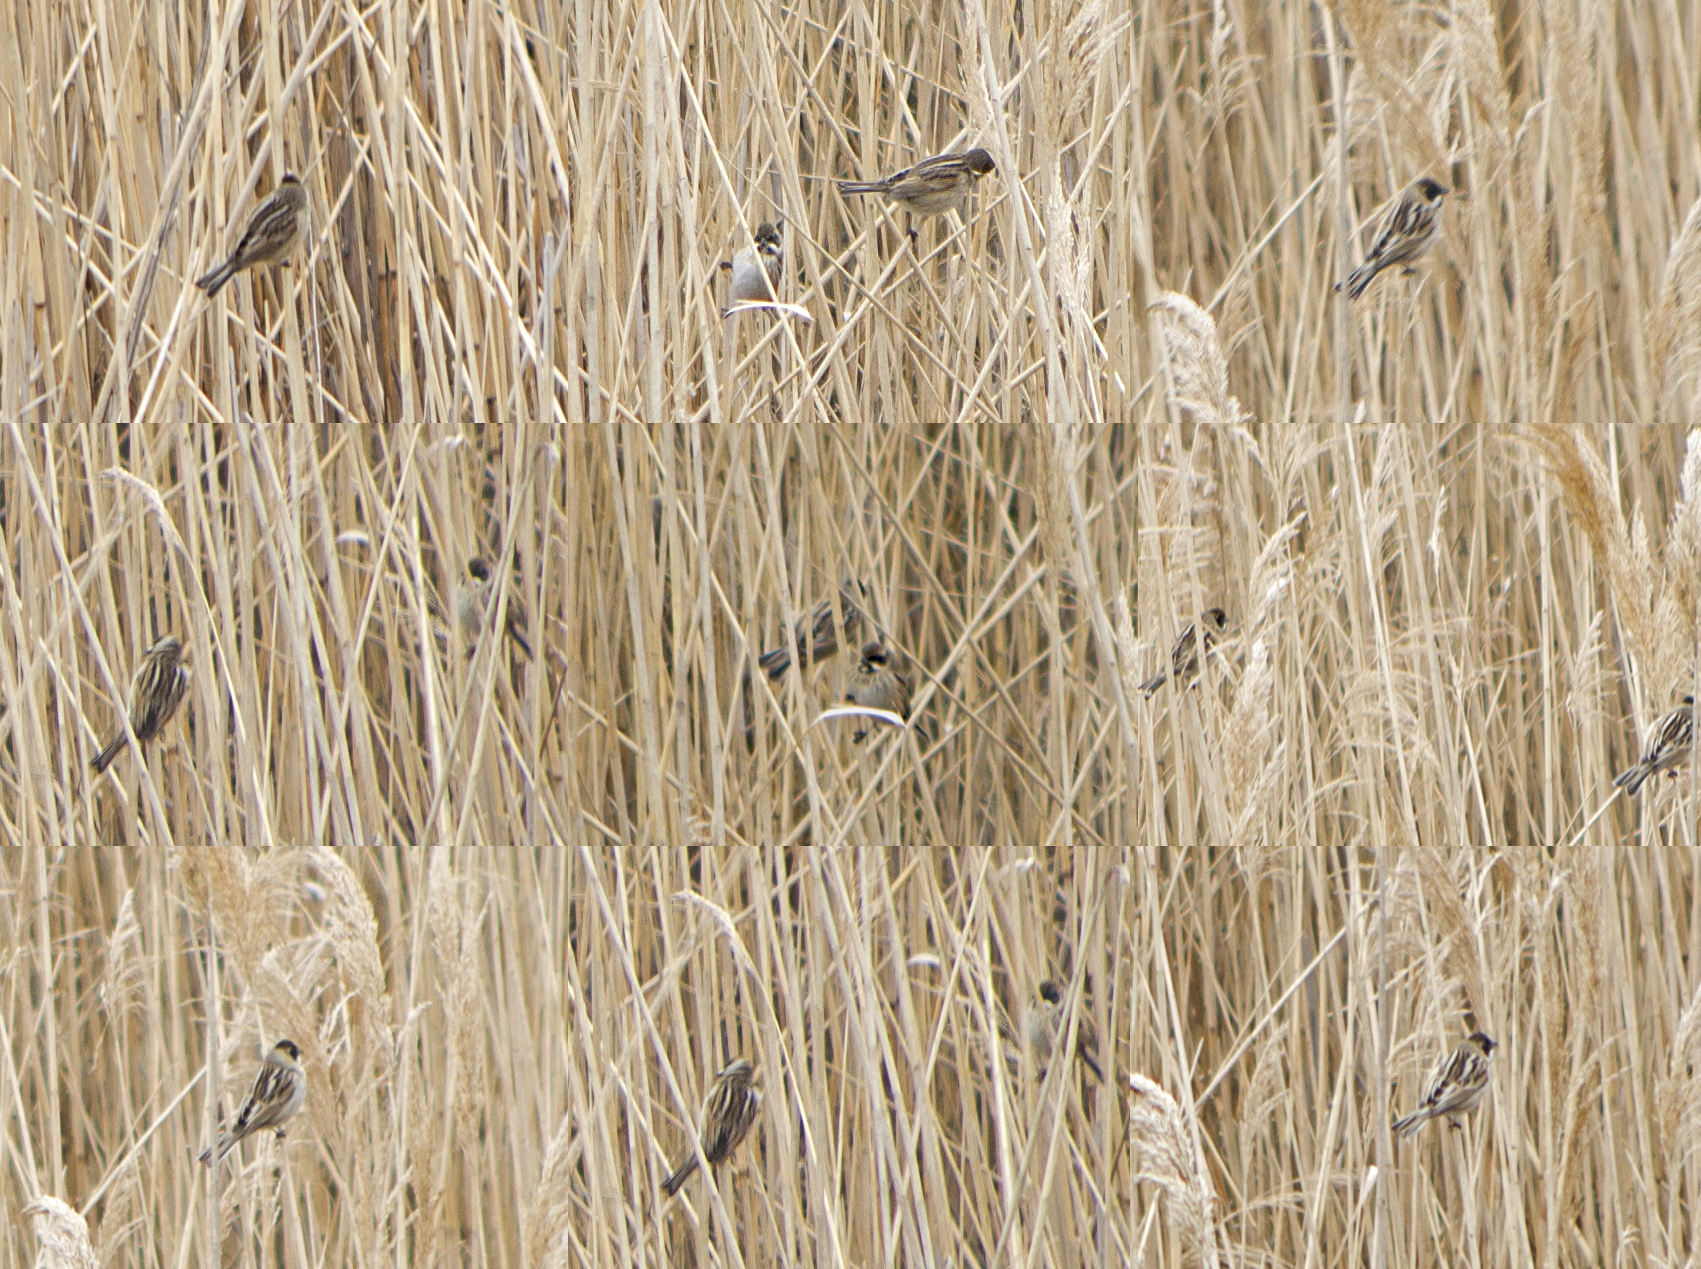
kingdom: Animalia
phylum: Chordata
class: Aves
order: Passeriformes
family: Emberizidae
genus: Emberiza
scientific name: Emberiza schoeniclus
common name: Reed bunting
